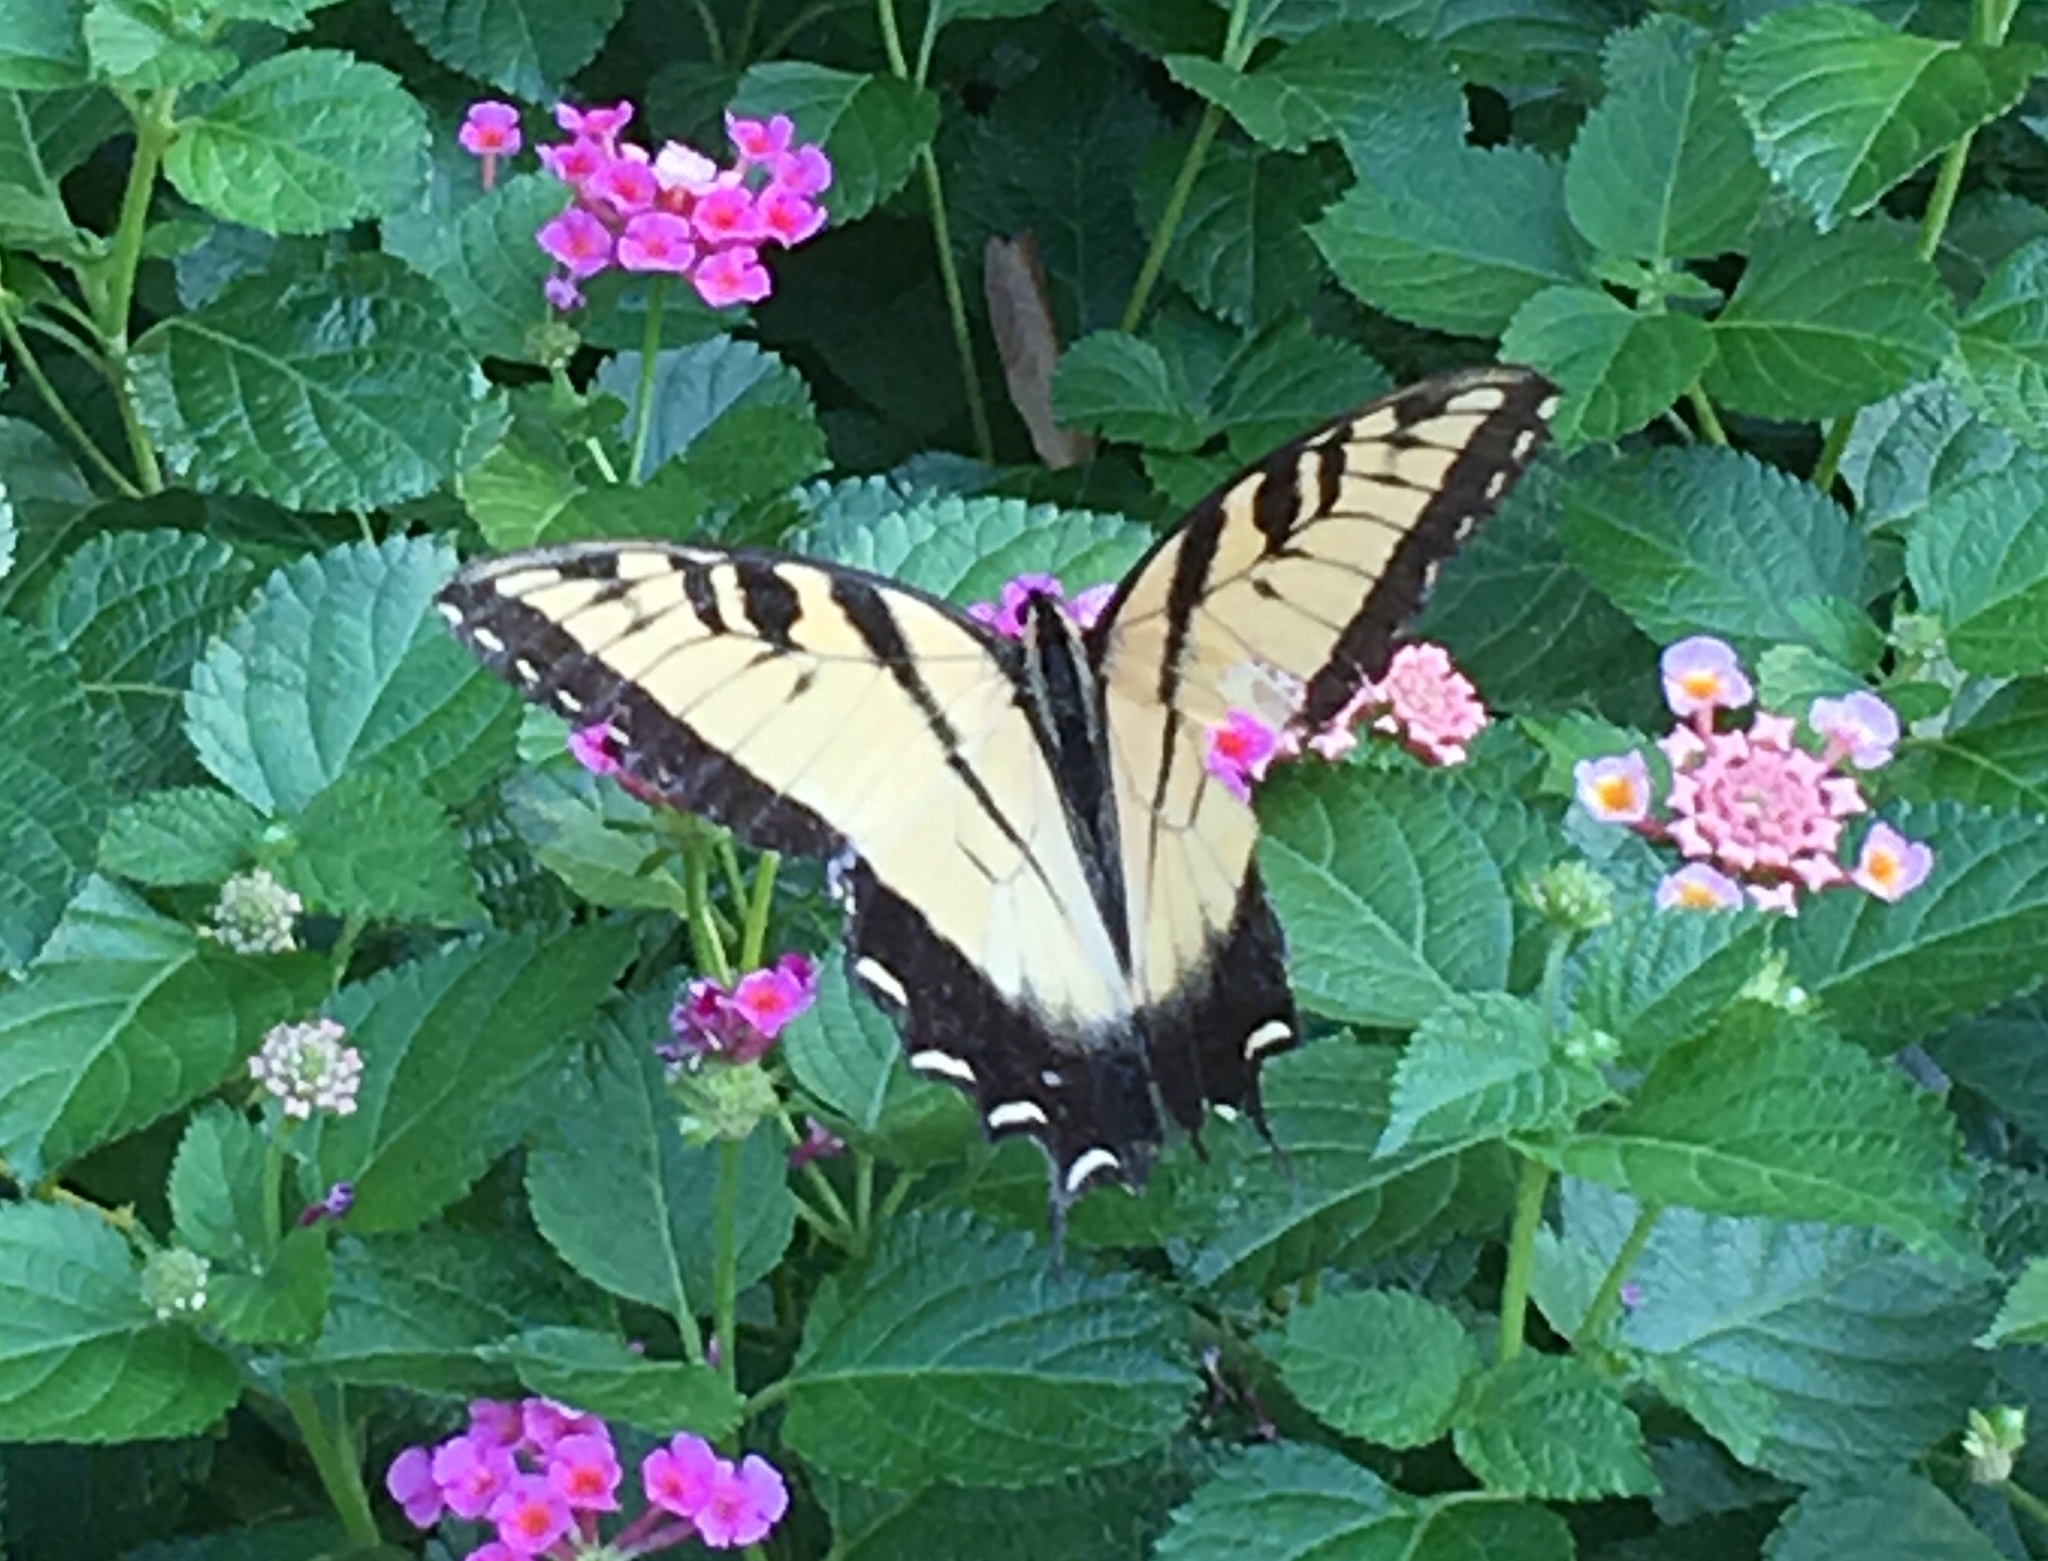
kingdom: Animalia
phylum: Arthropoda
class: Insecta
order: Lepidoptera
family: Papilionidae
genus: Papilio
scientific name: Papilio glaucus
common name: Tiger swallowtail
